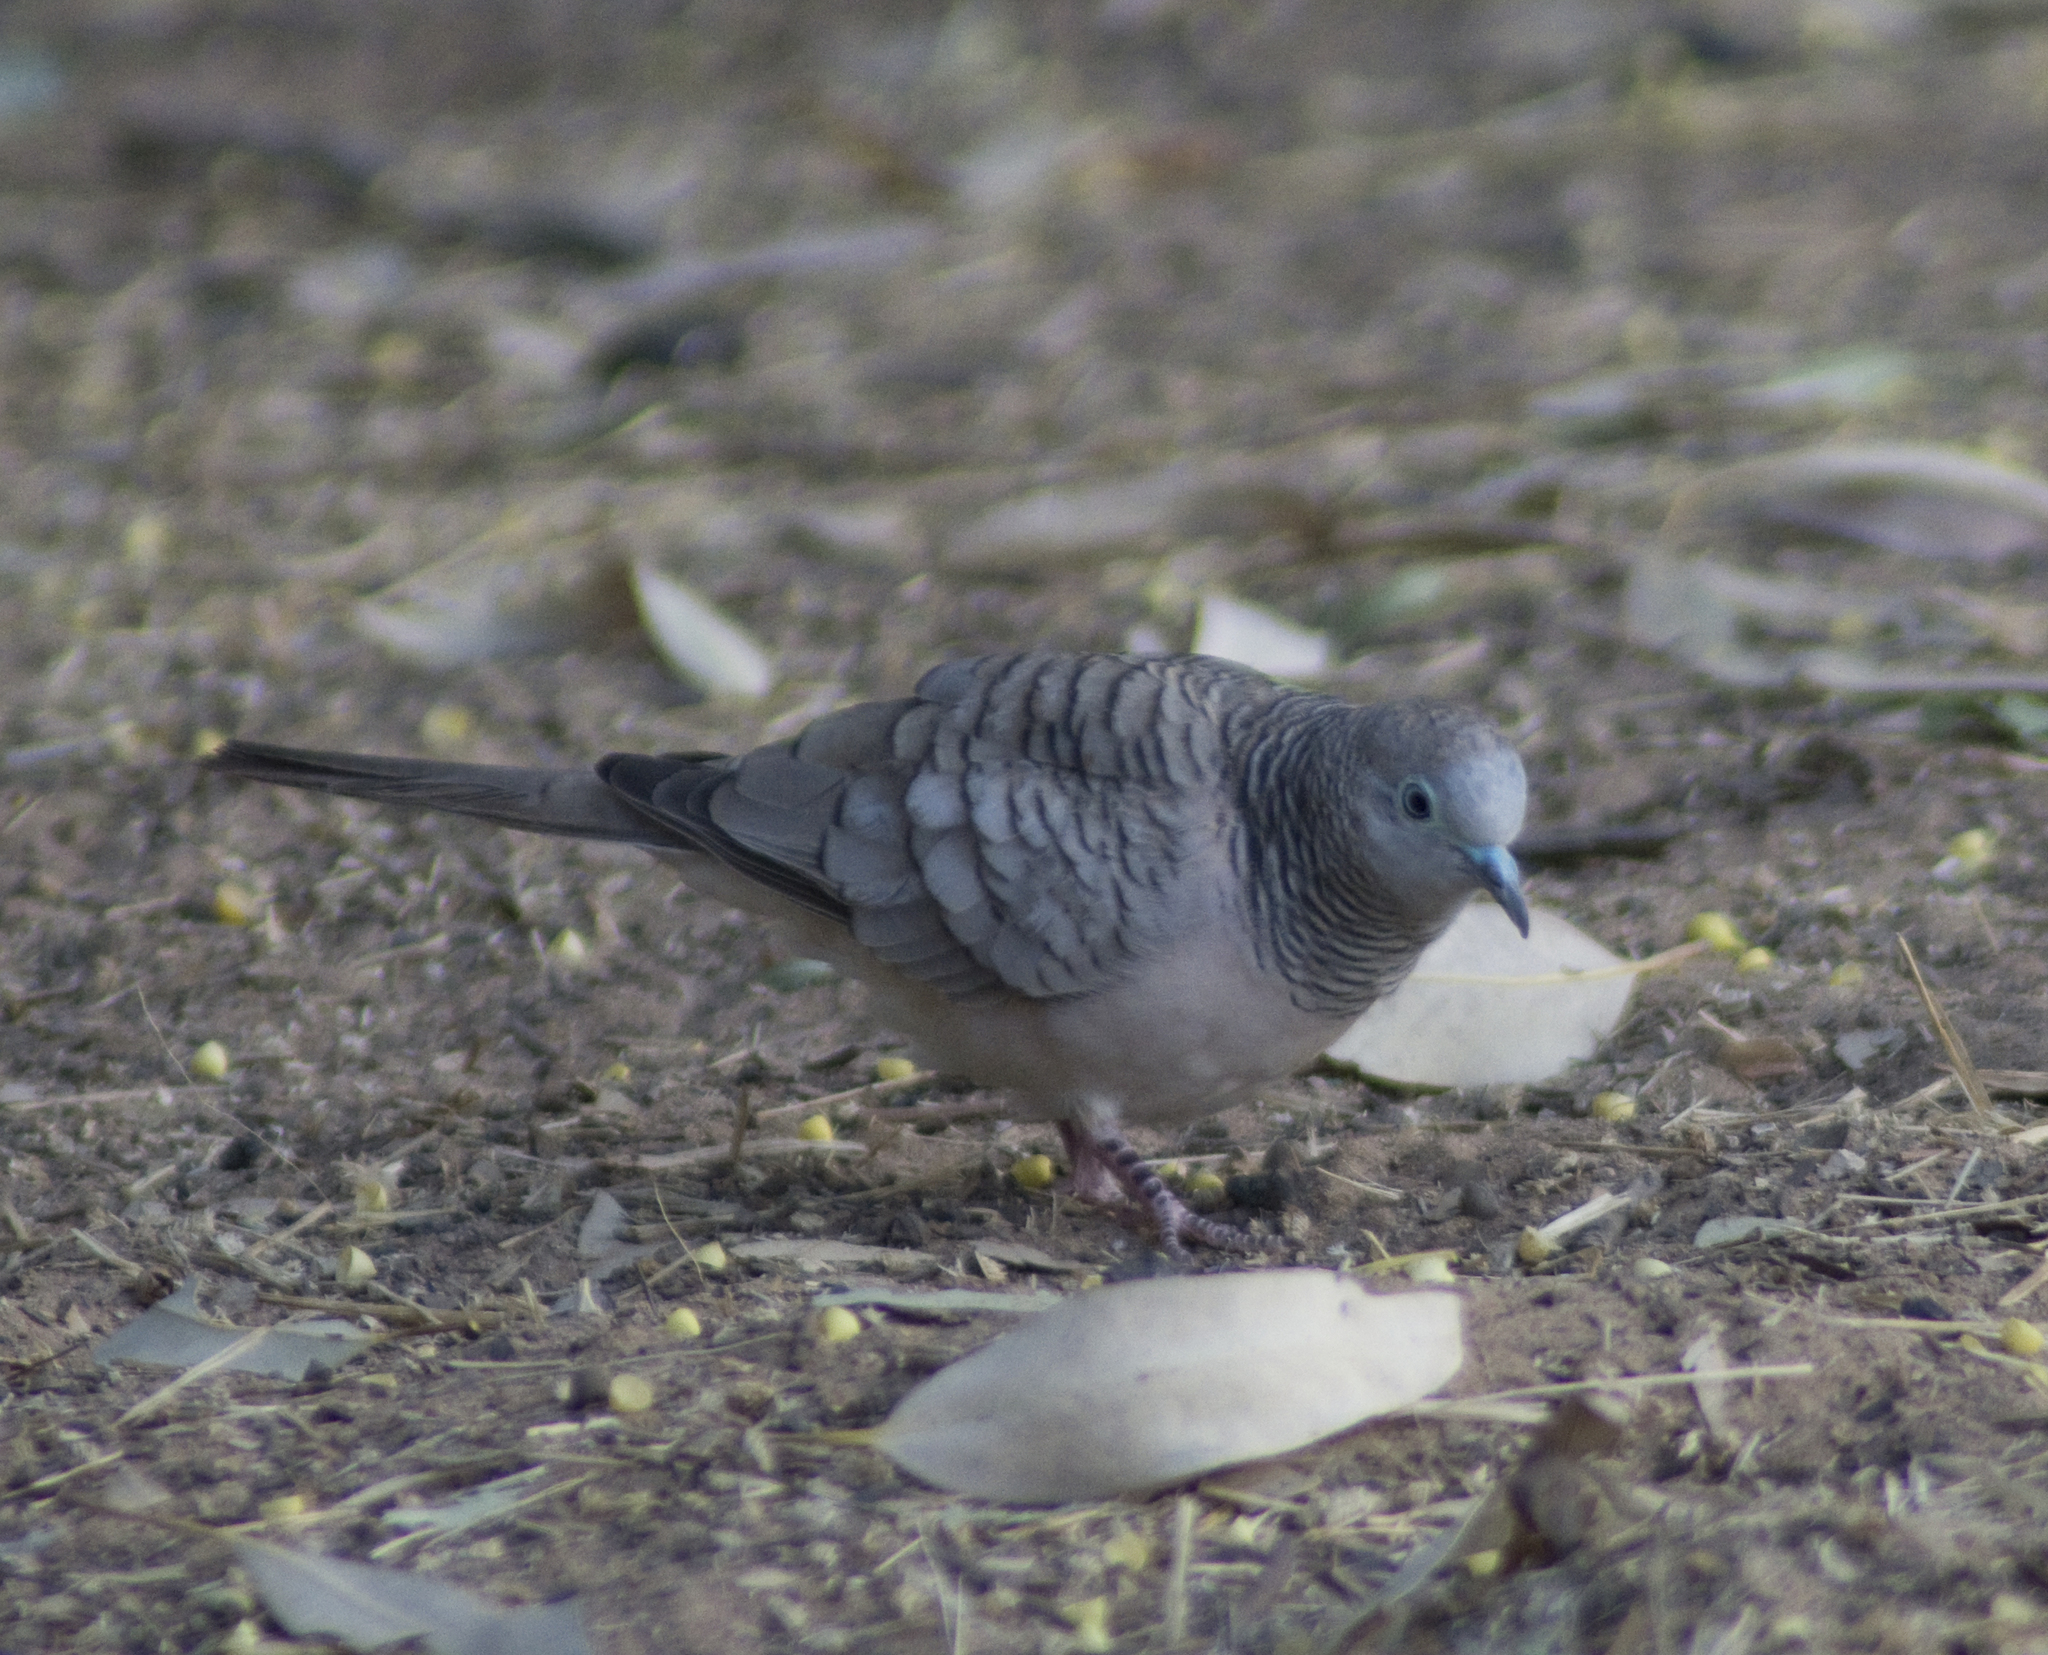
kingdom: Animalia
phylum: Chordata
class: Aves
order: Columbiformes
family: Columbidae
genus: Geopelia
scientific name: Geopelia placida
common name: Peaceful dove
